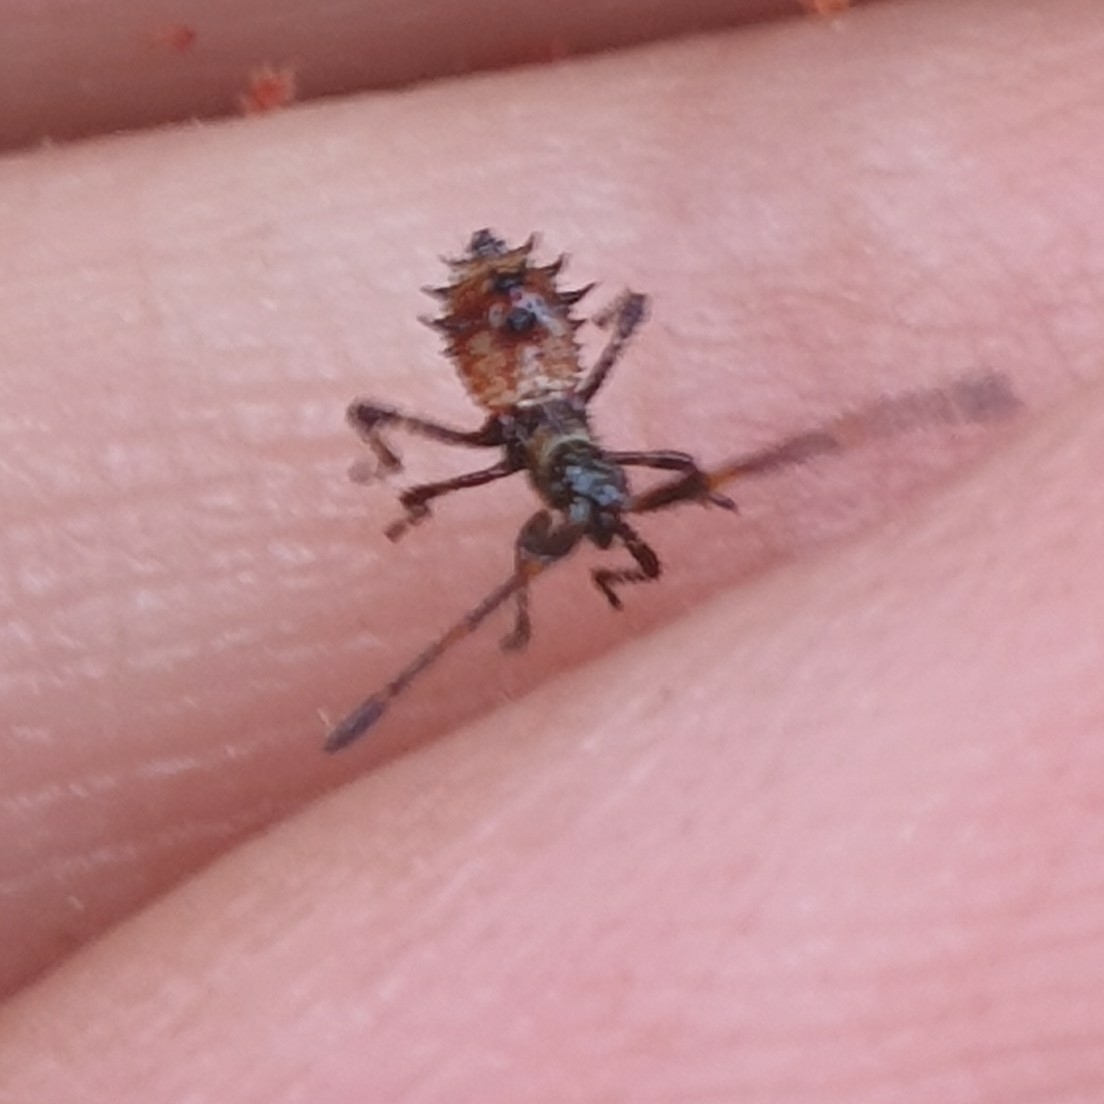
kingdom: Animalia
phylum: Arthropoda
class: Insecta
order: Hemiptera
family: Coreidae
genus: Coreus
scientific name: Coreus marginatus
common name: Dock bug
